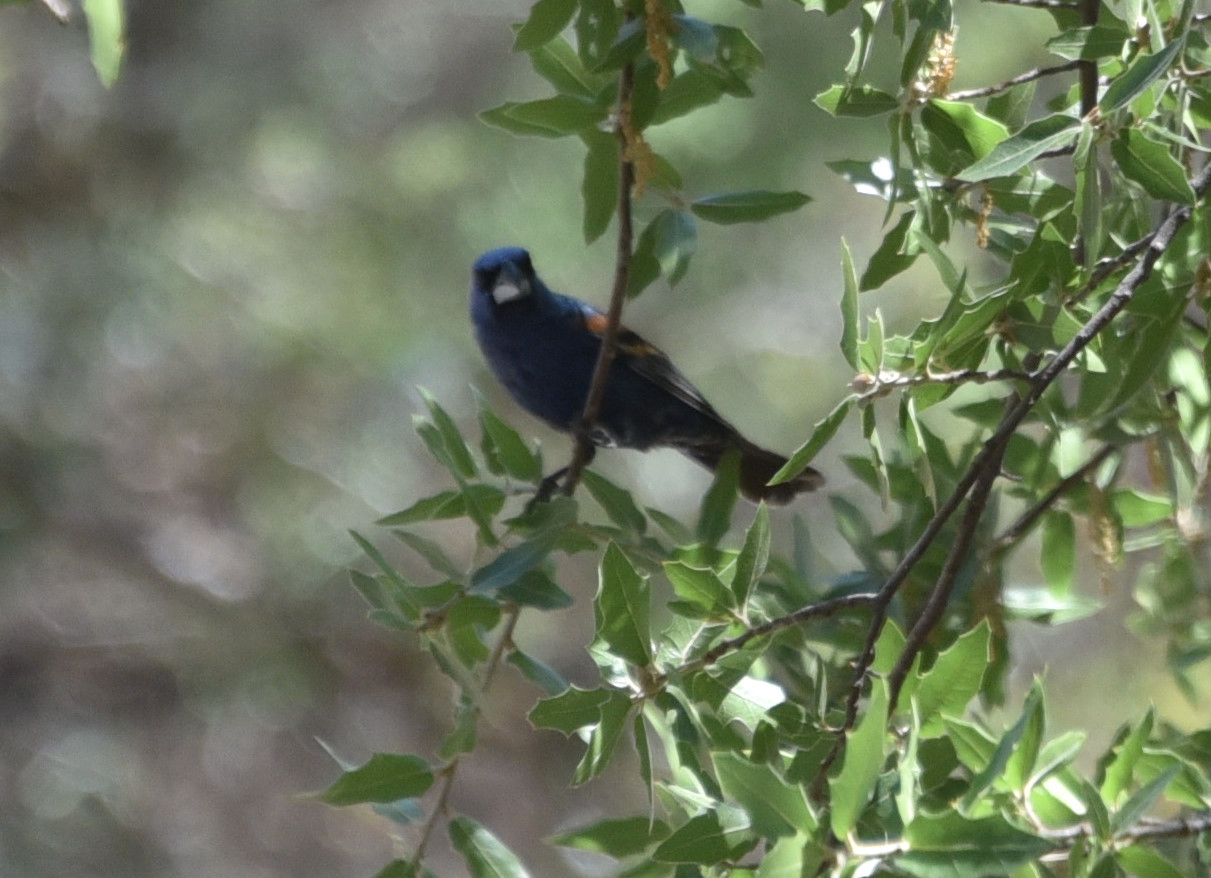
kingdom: Animalia
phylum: Chordata
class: Aves
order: Passeriformes
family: Cardinalidae
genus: Passerina
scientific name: Passerina caerulea
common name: Blue grosbeak
